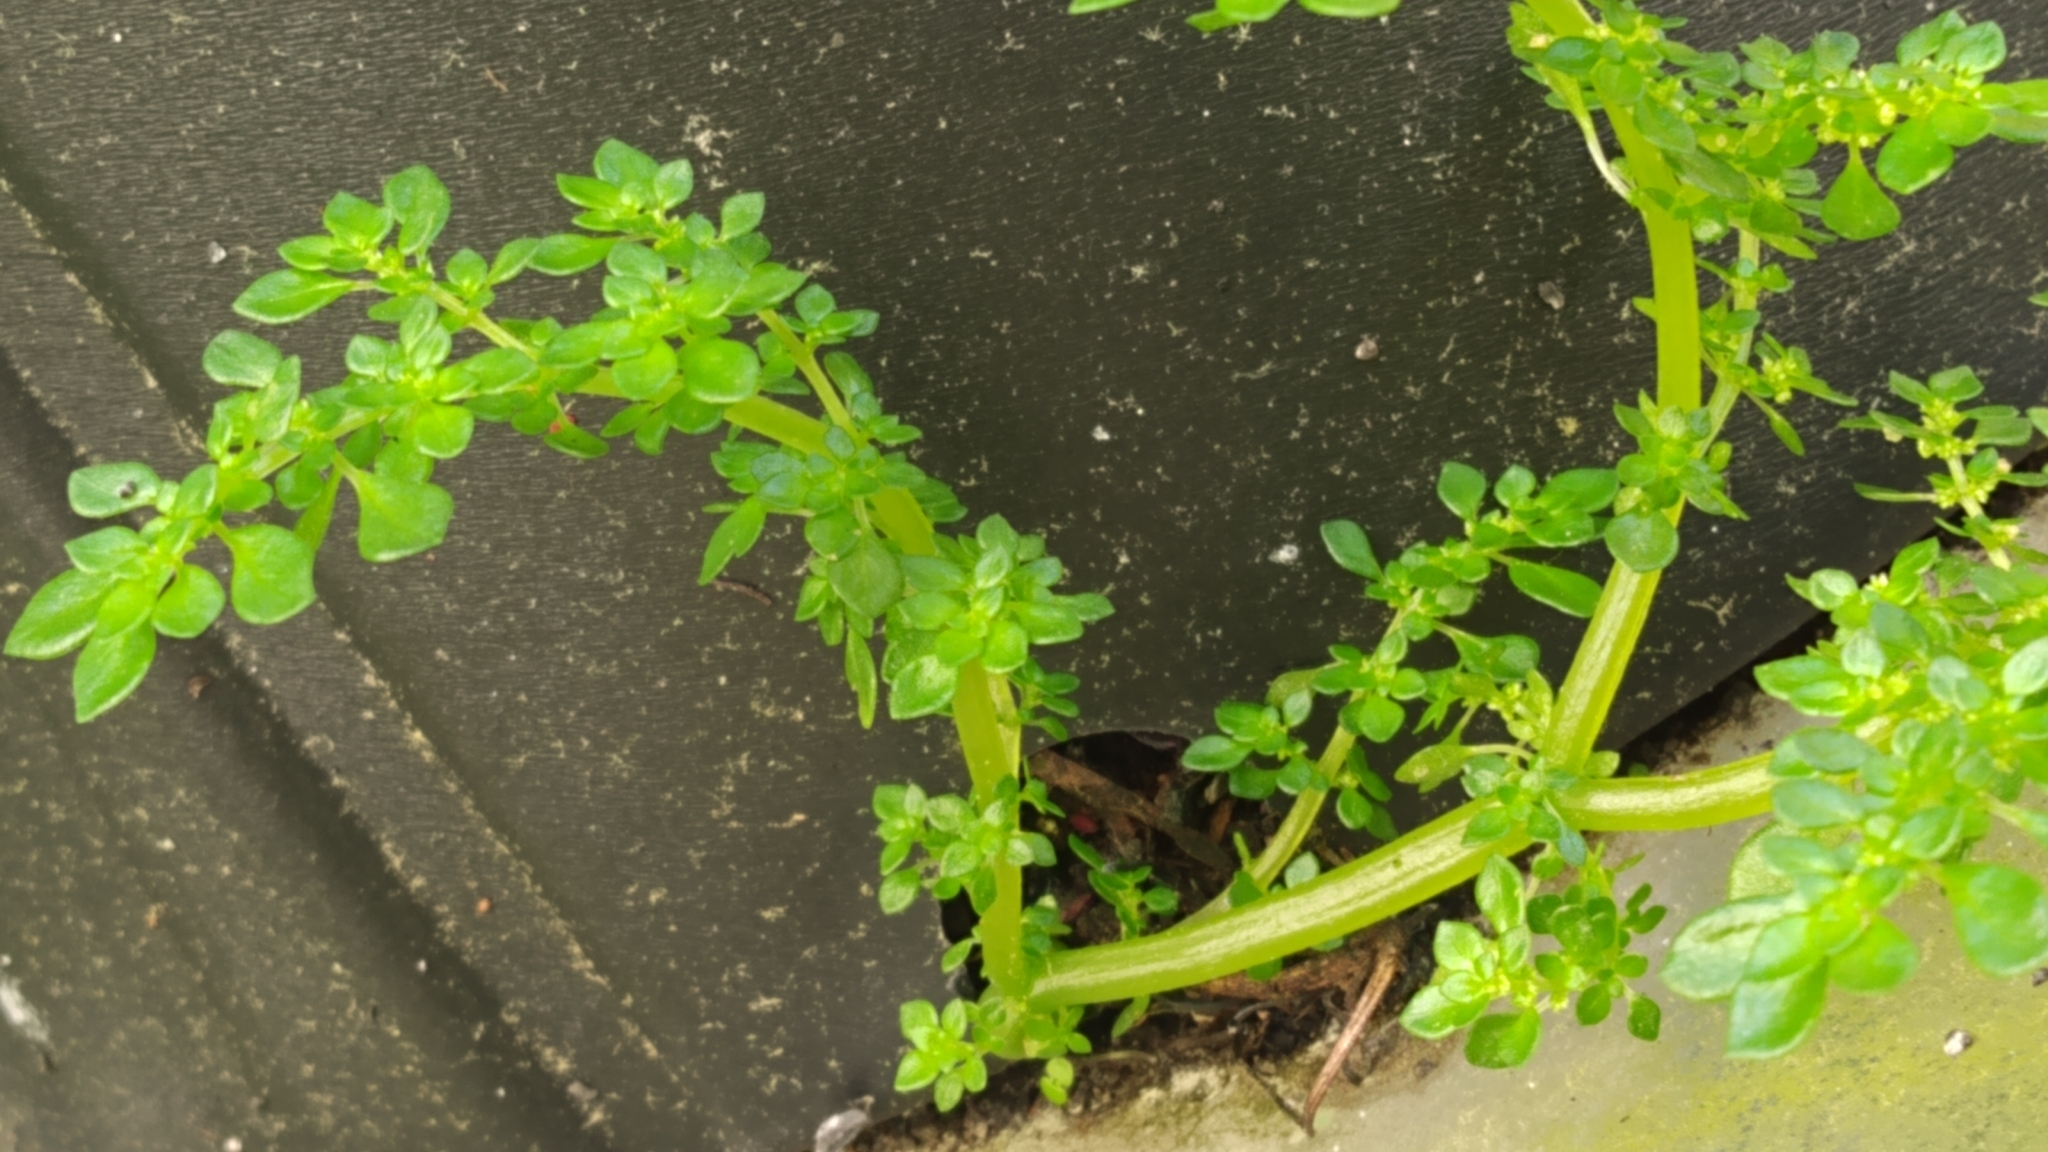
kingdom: Plantae
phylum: Tracheophyta
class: Magnoliopsida
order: Rosales
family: Urticaceae
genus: Pilea
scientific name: Pilea microphylla
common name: Artillery-plant
